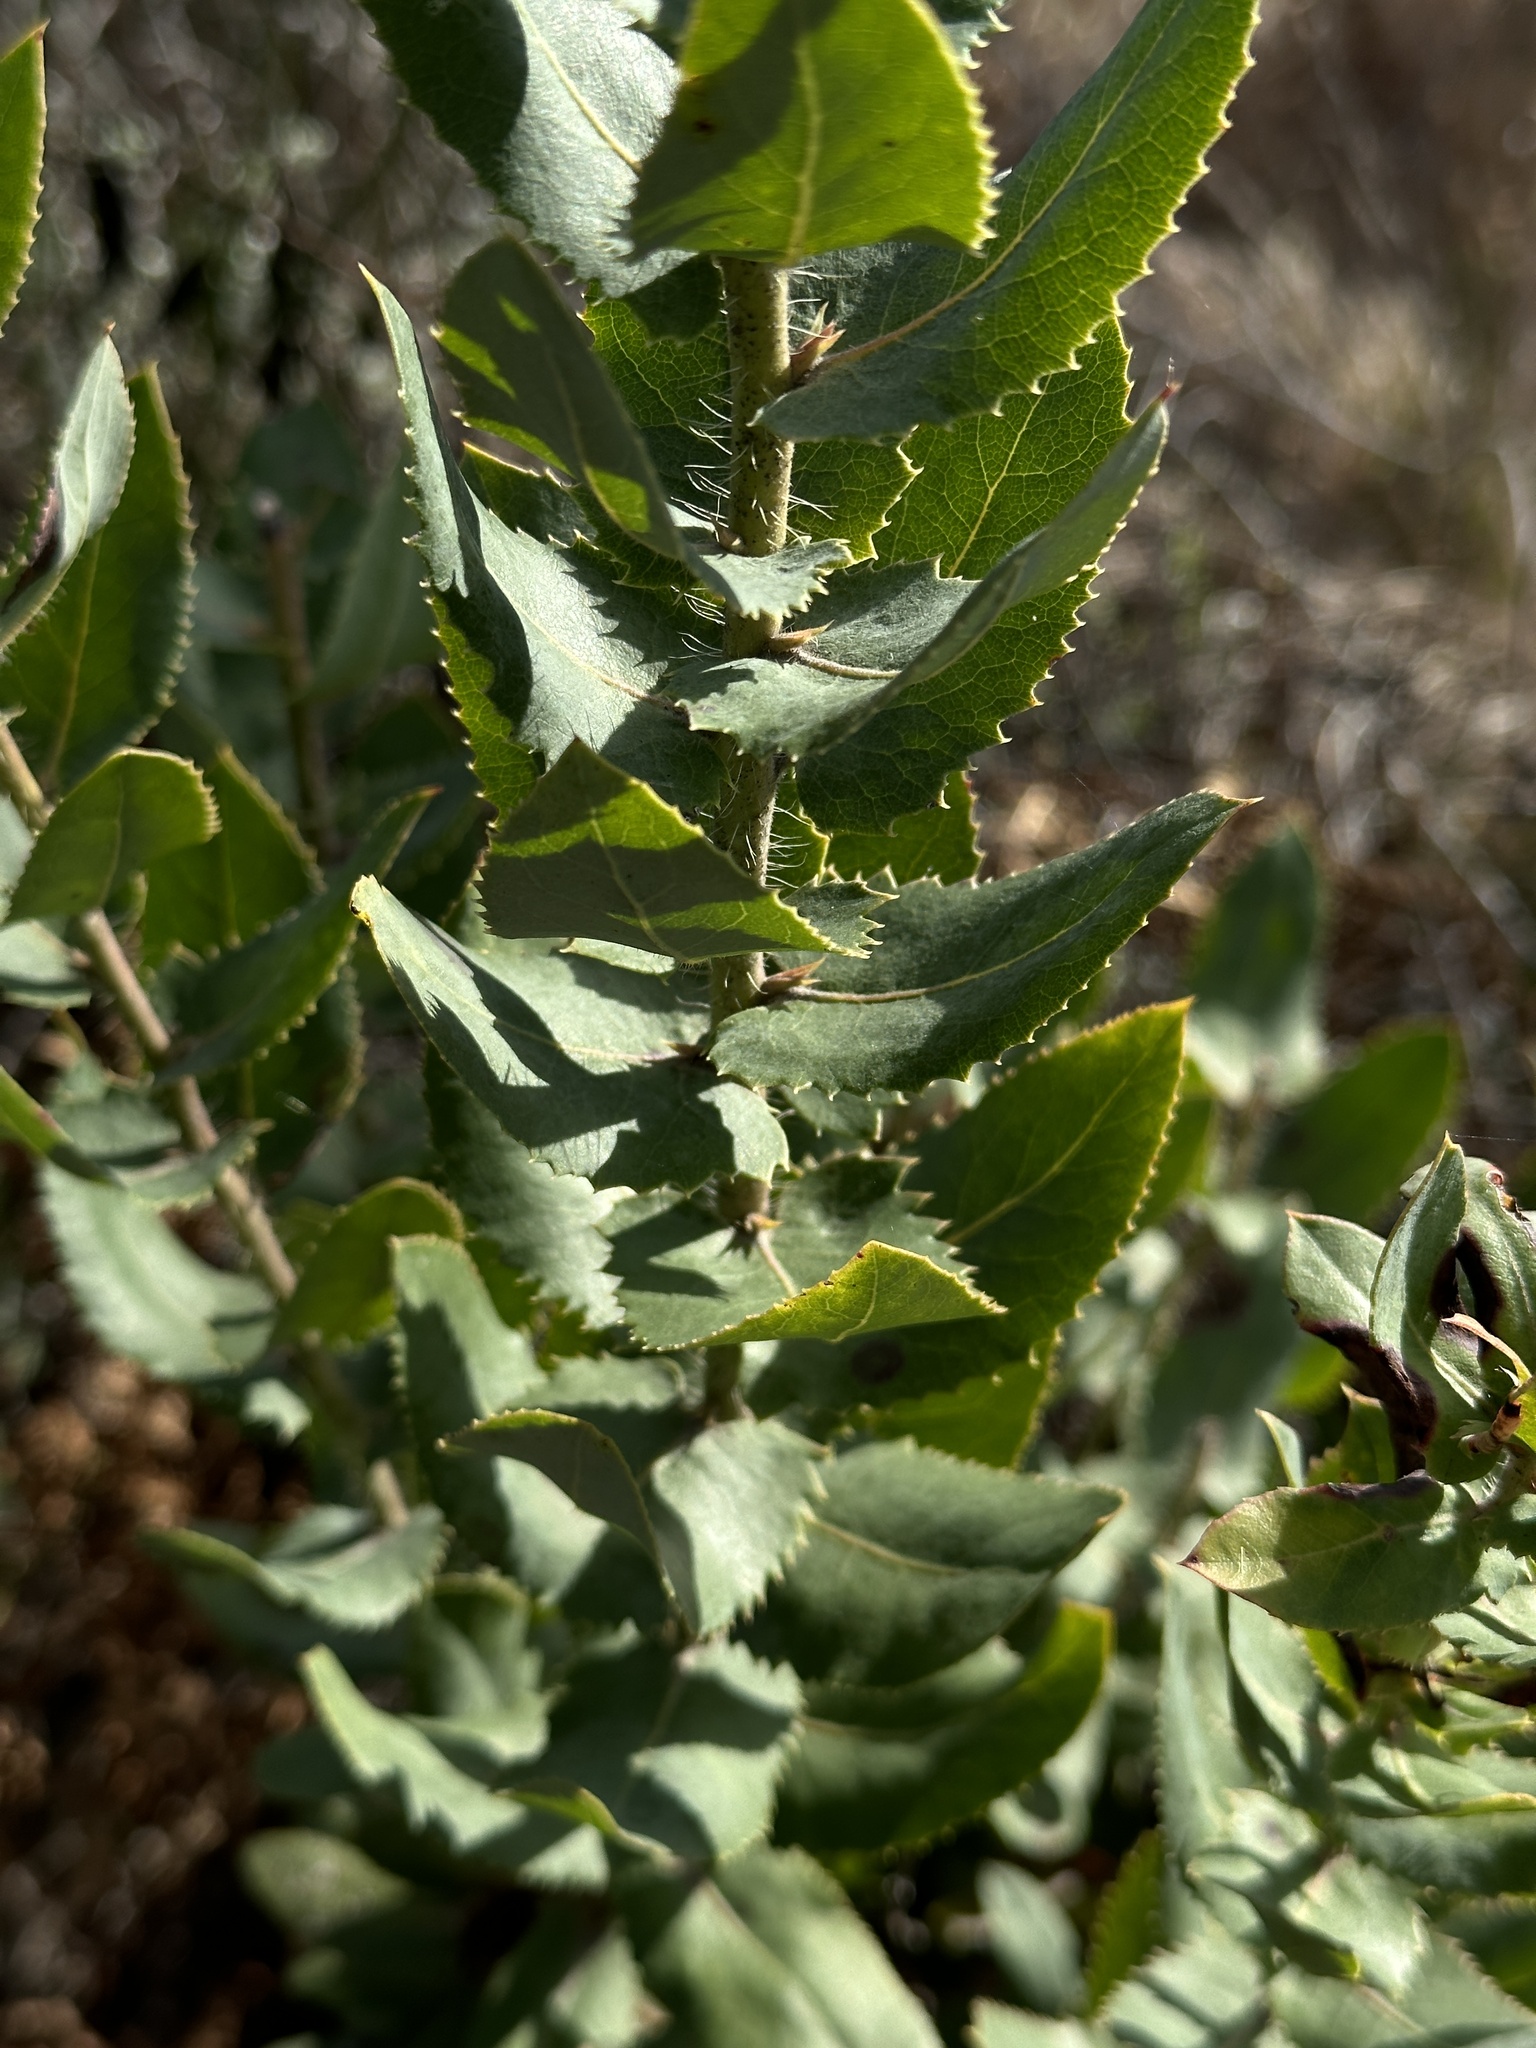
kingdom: Plantae
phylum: Tracheophyta
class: Magnoliopsida
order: Ericales
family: Ericaceae
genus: Arctostaphylos
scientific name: Arctostaphylos andersonii
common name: Santa cruz manzanita
